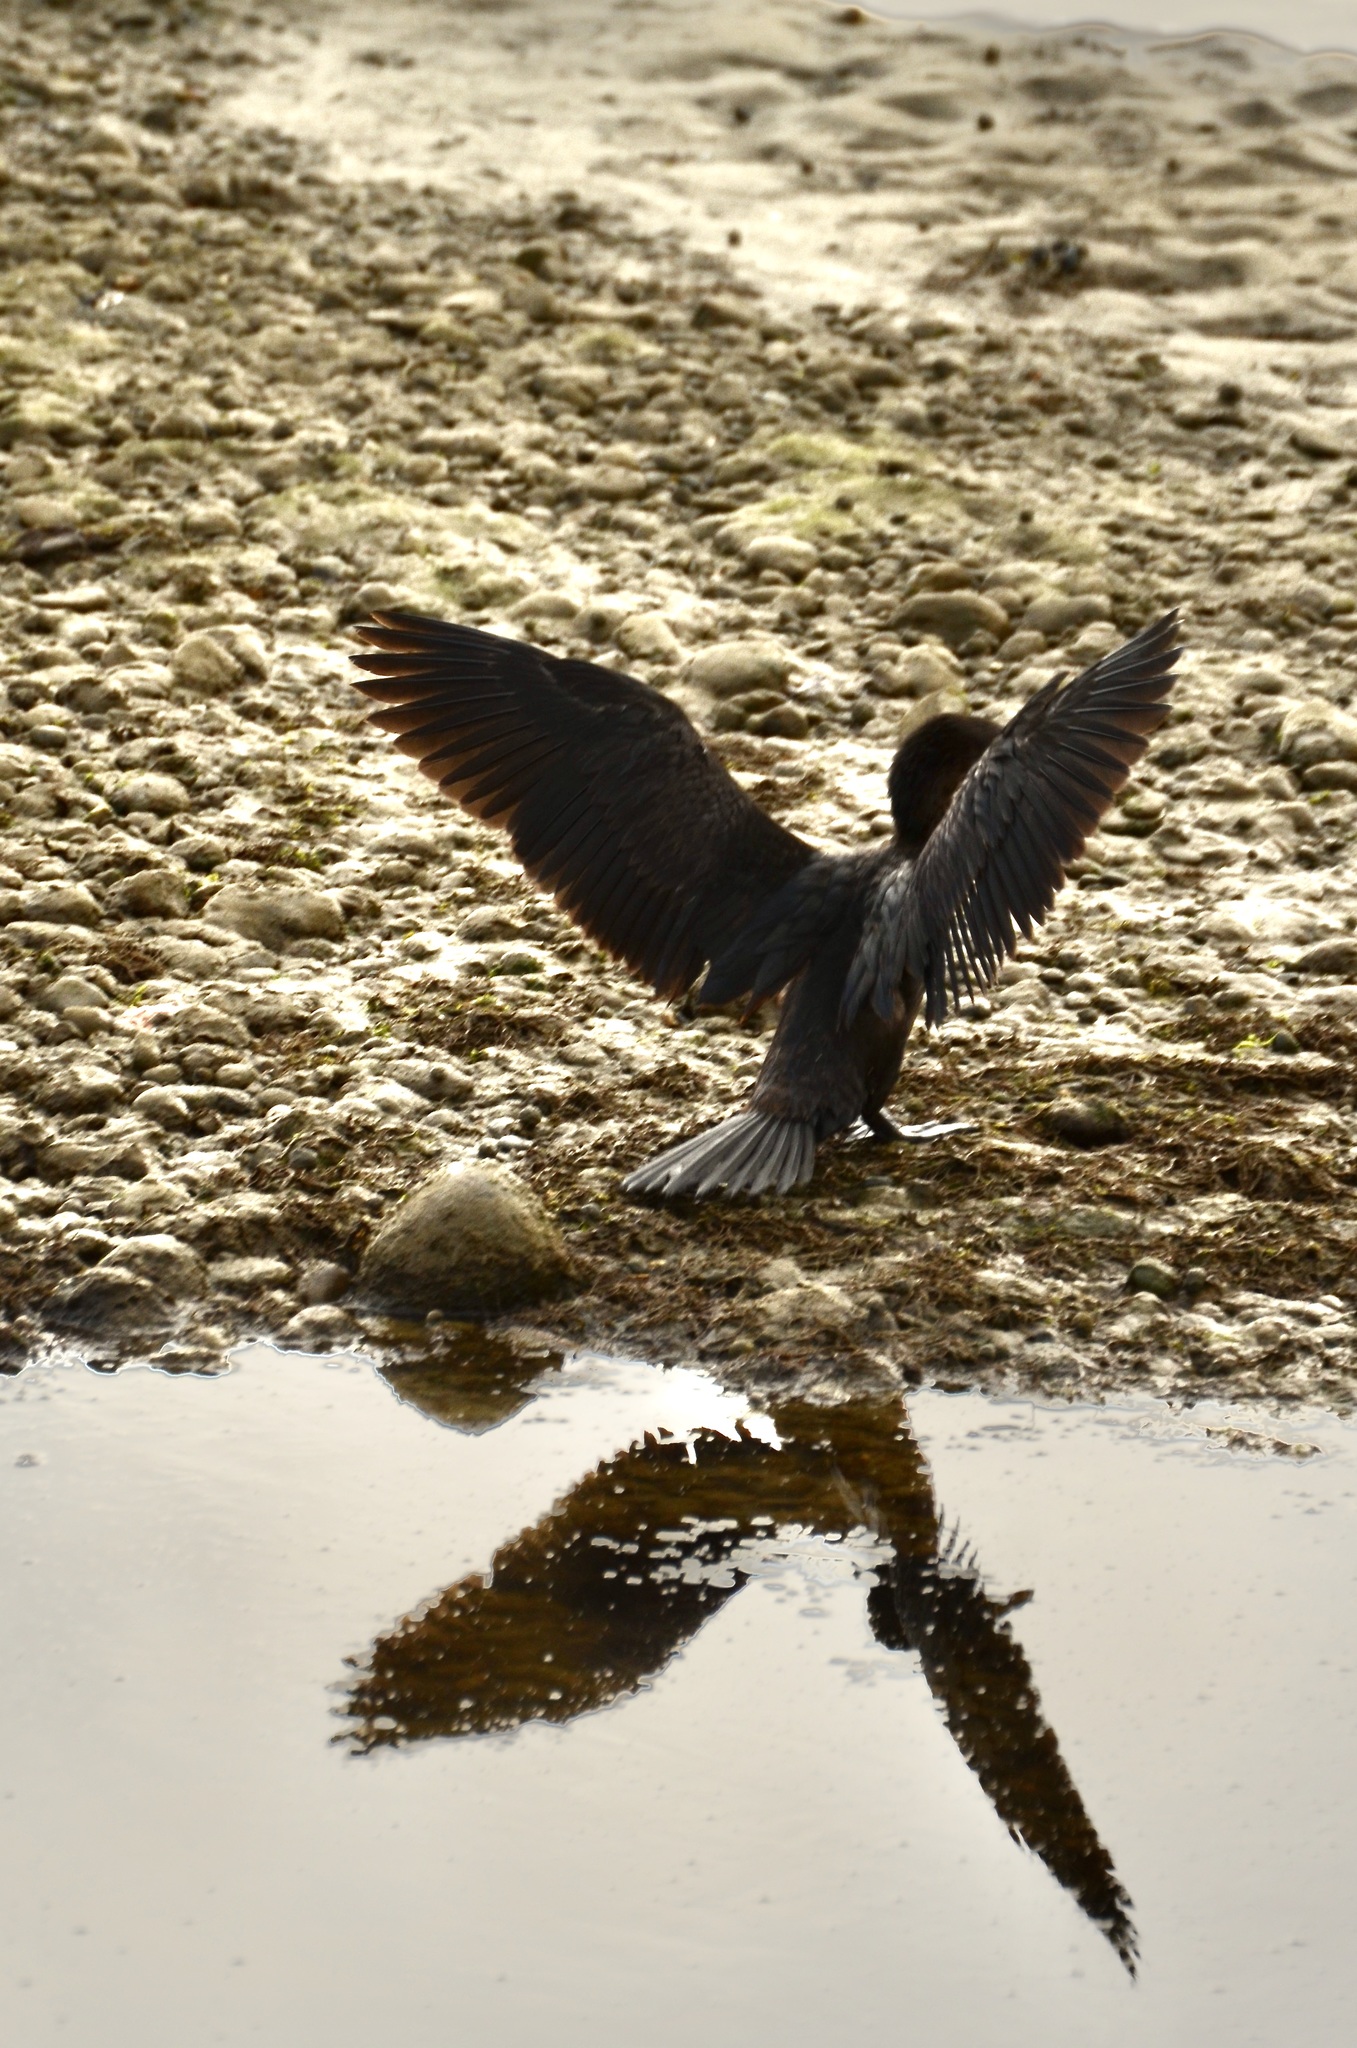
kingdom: Animalia
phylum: Chordata
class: Aves
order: Suliformes
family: Phalacrocoracidae
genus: Microcarbo
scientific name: Microcarbo melanoleucos
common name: Little pied cormorant
